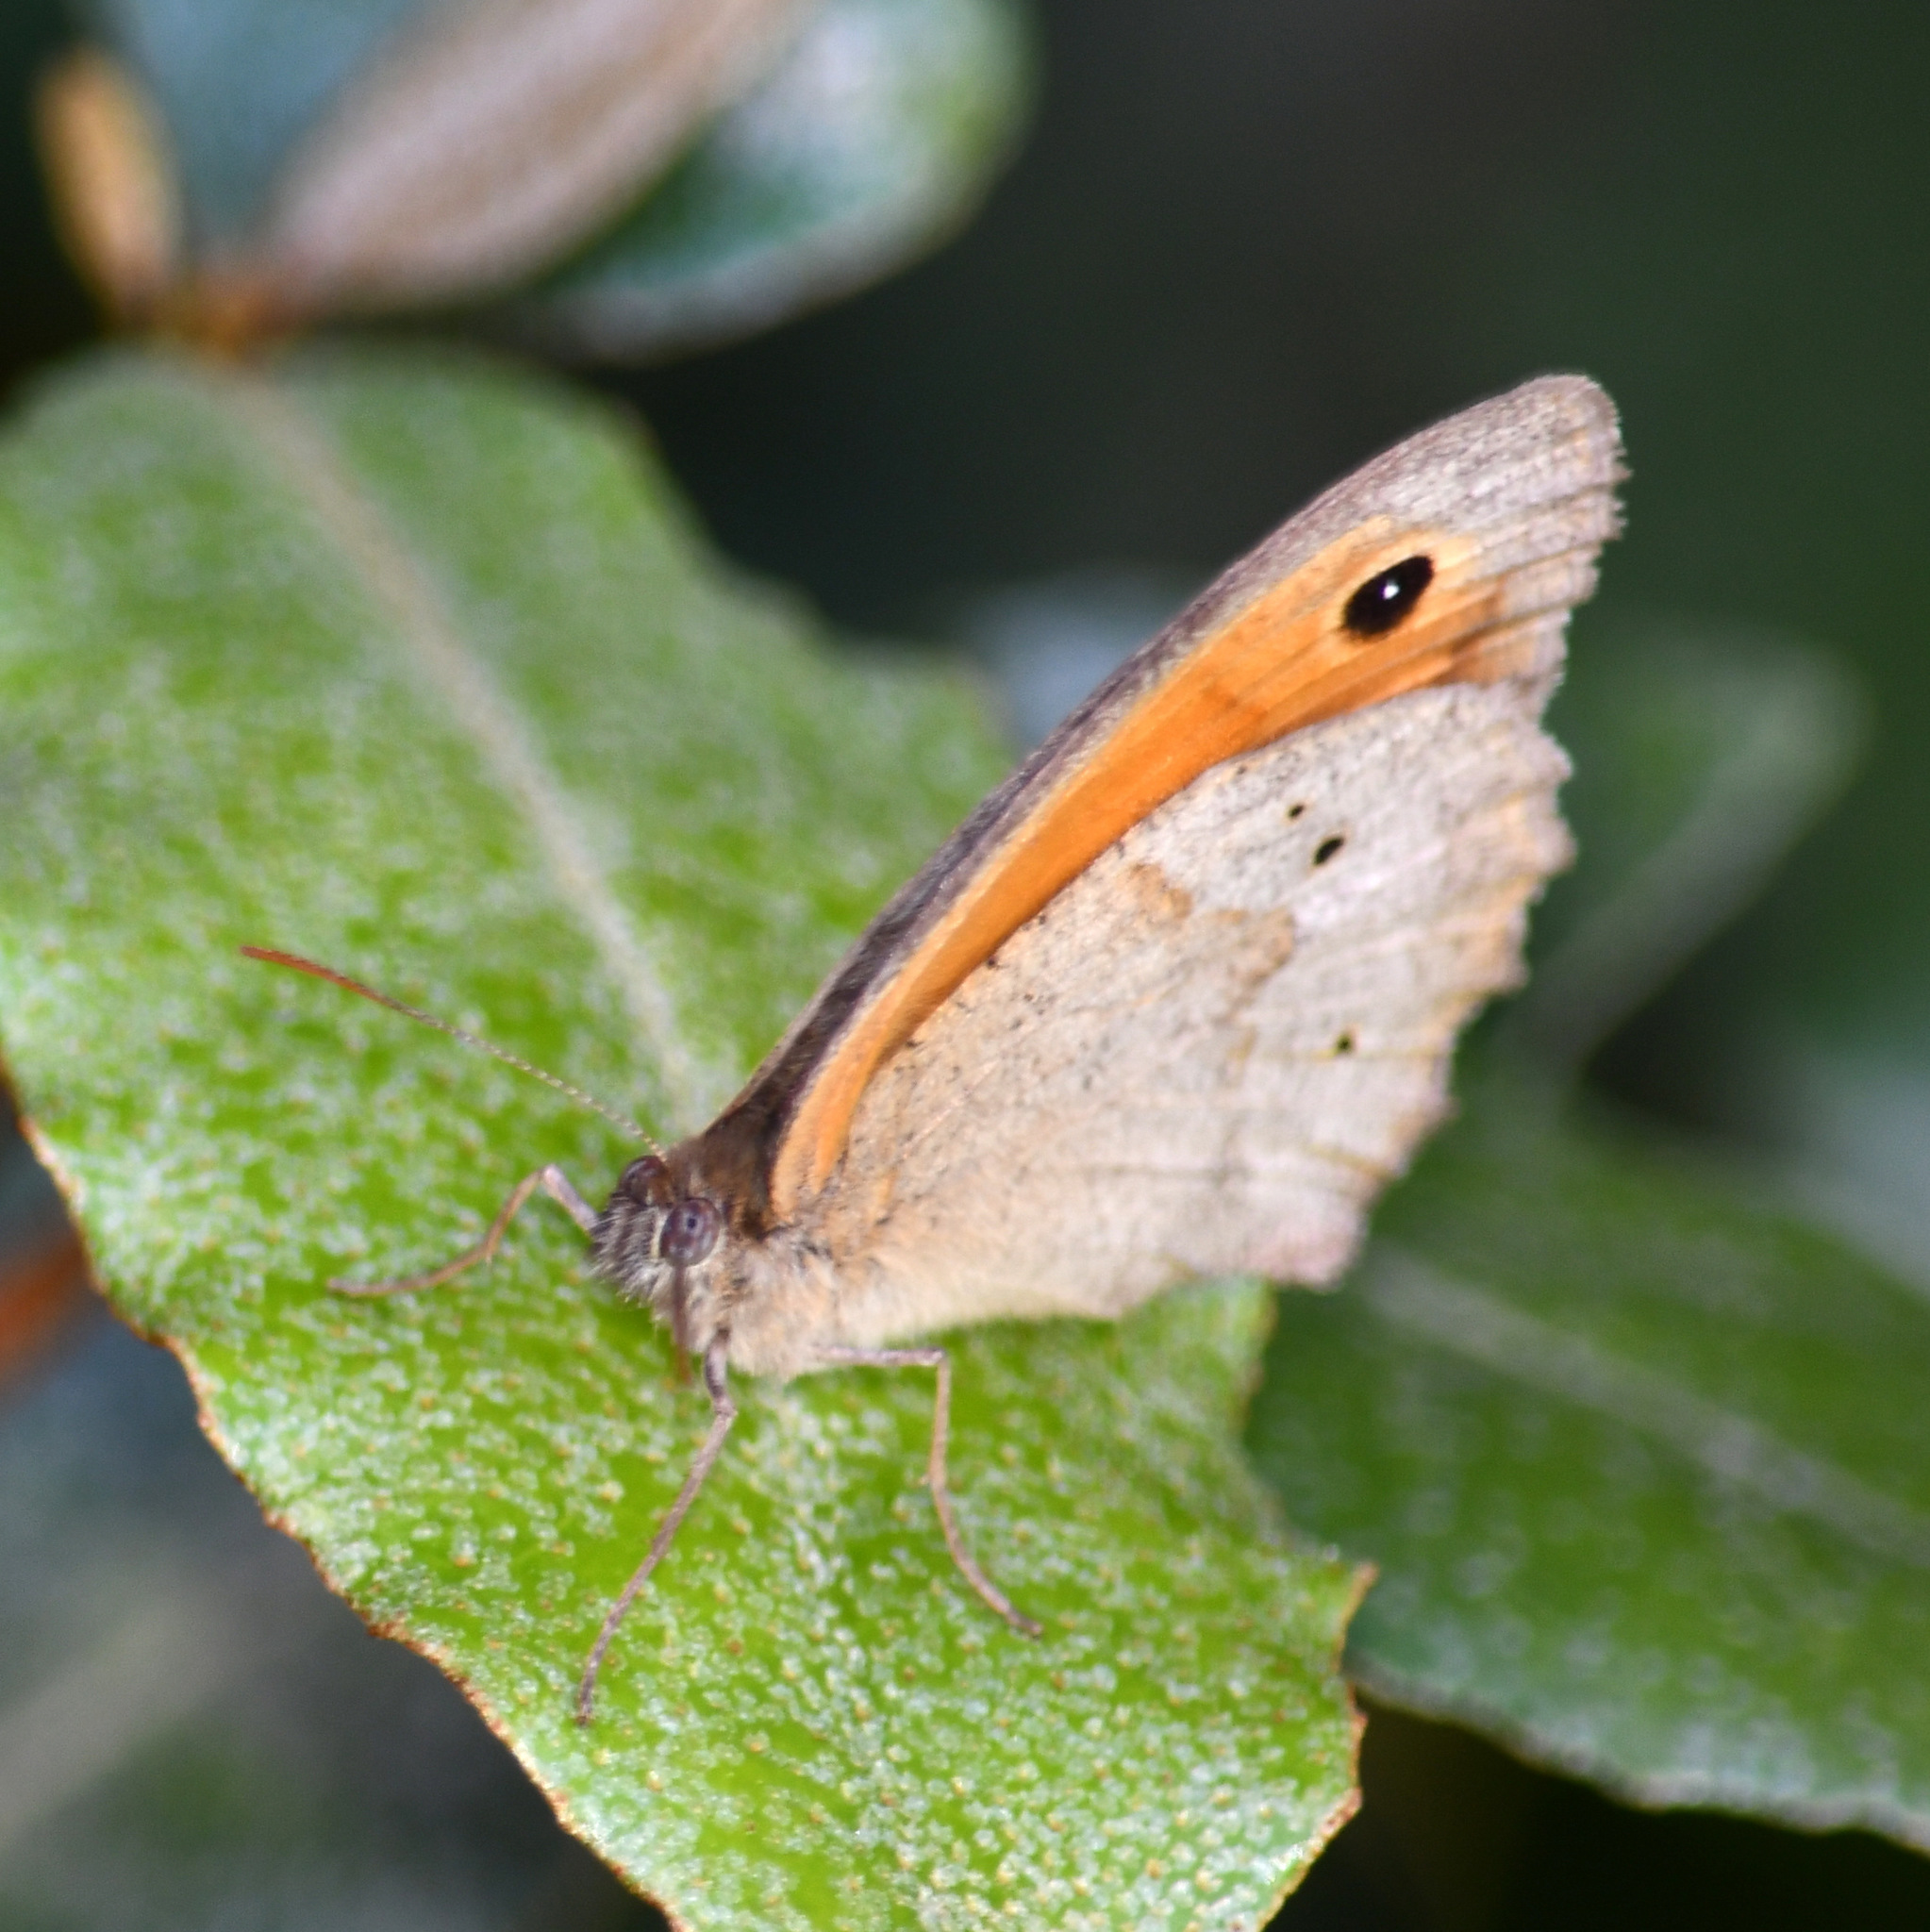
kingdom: Animalia
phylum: Arthropoda
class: Insecta
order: Lepidoptera
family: Nymphalidae
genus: Maniola
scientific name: Maniola jurtina
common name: Meadow brown
